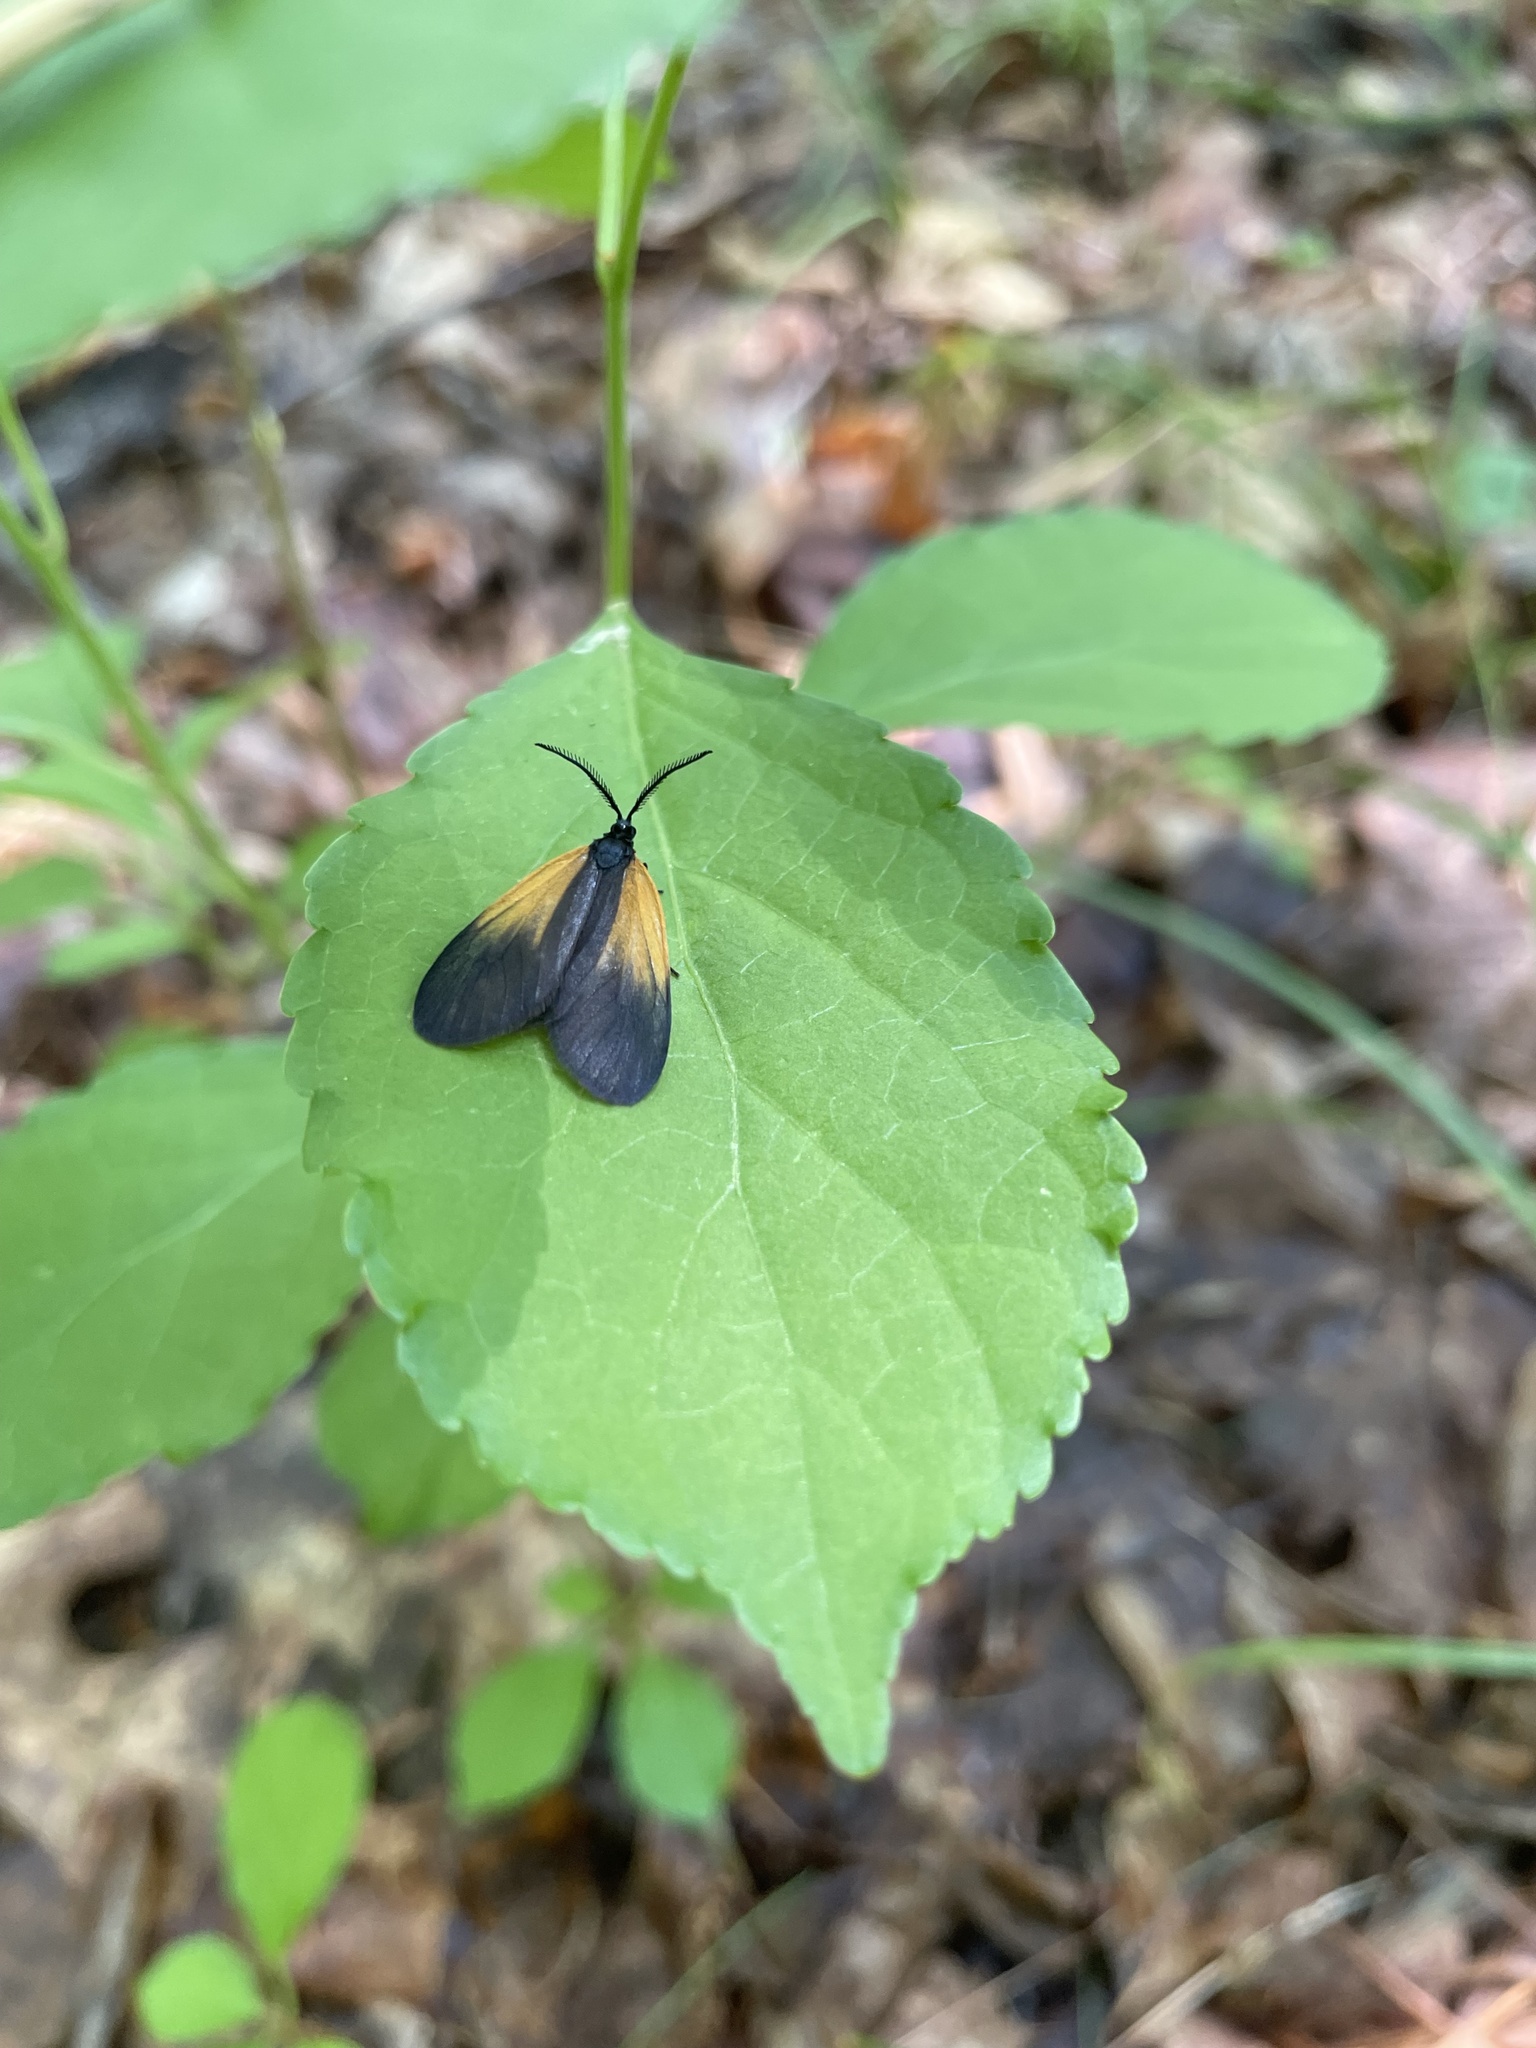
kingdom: Animalia
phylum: Arthropoda
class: Insecta
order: Lepidoptera
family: Zygaenidae
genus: Malthaca
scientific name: Malthaca dimidiata
